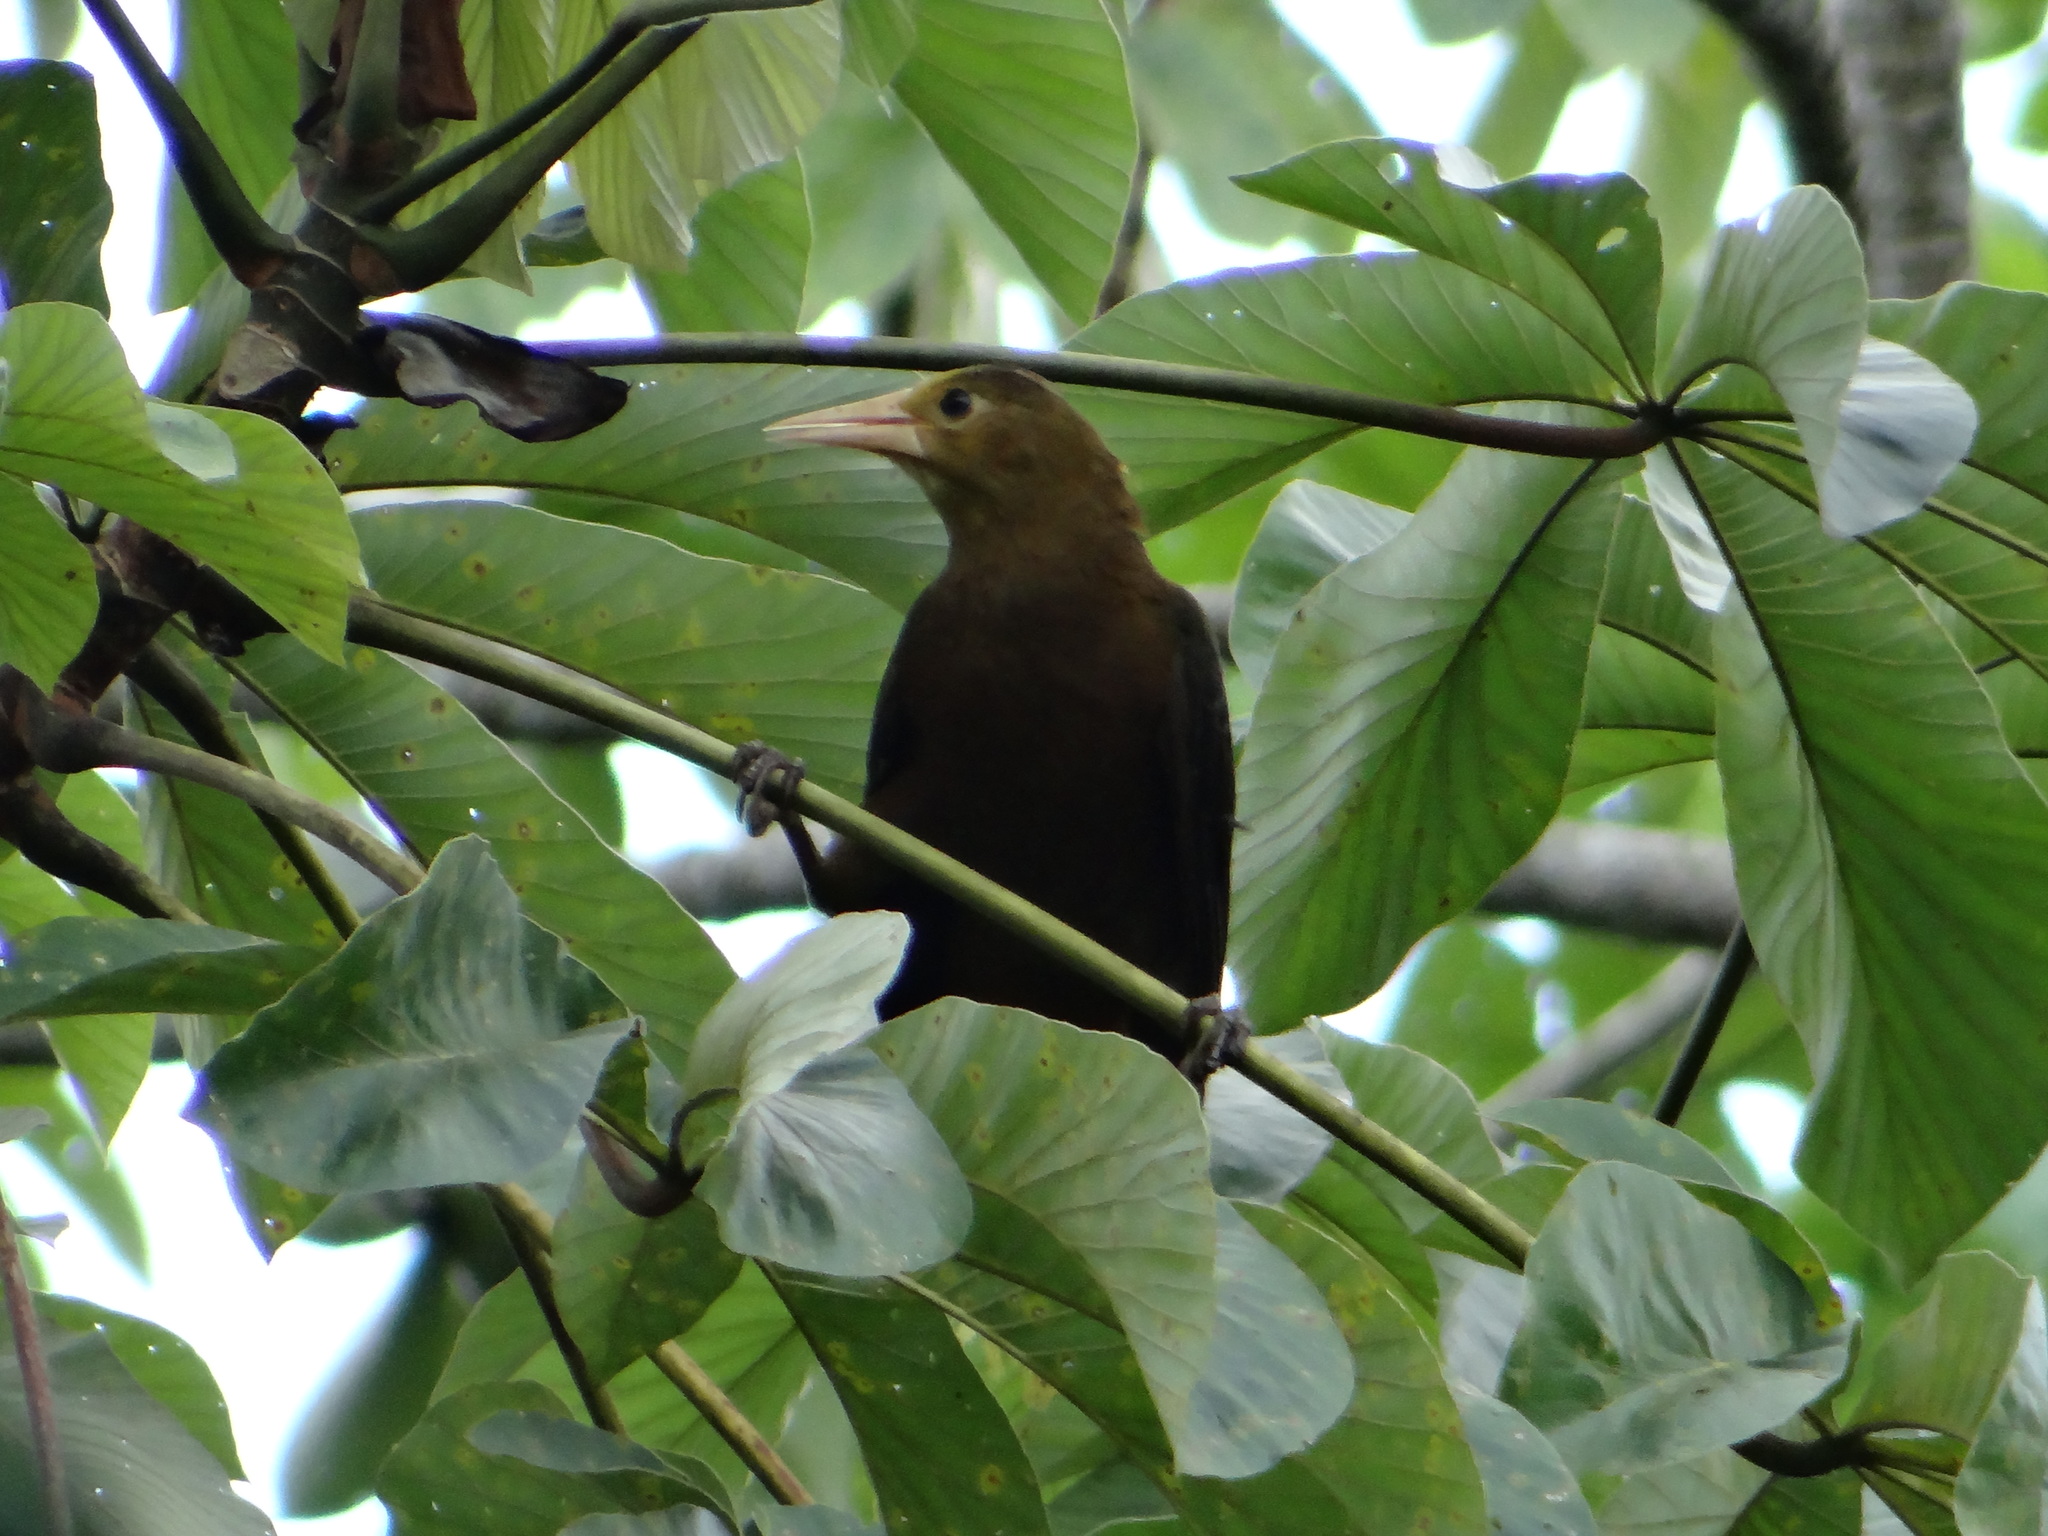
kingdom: Animalia
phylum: Chordata
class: Aves
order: Passeriformes
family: Icteridae
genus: Psarocolius
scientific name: Psarocolius angustifrons
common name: Russet-backed oropendola
